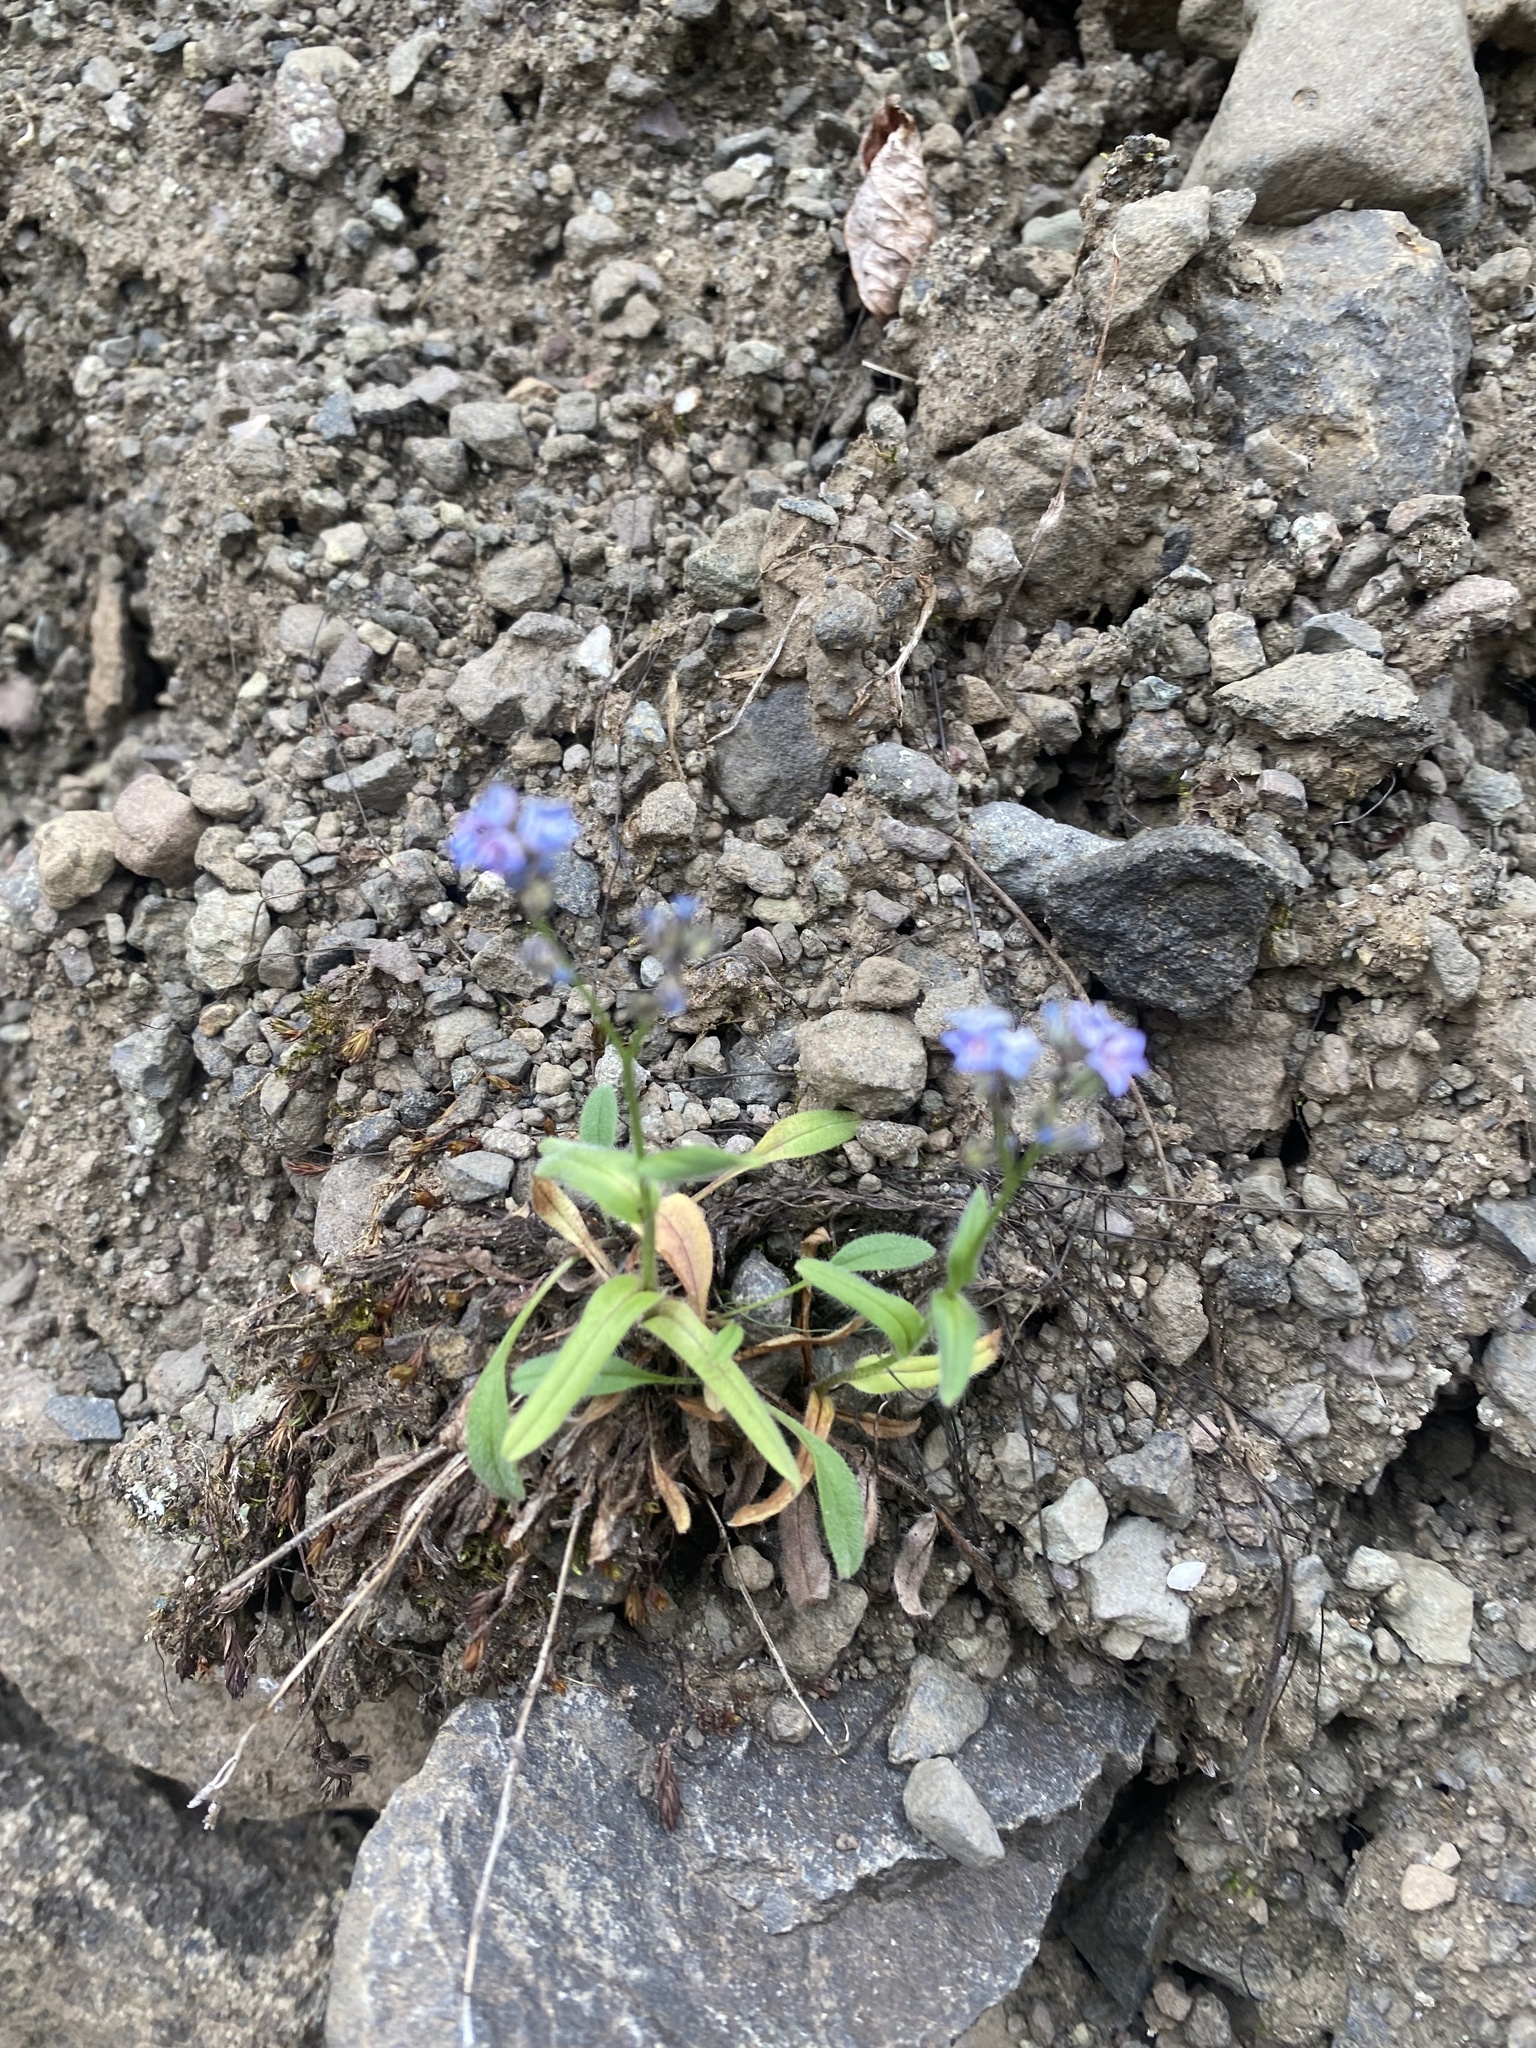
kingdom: Plantae
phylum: Tracheophyta
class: Magnoliopsida
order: Boraginales
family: Boraginaceae
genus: Myosotis
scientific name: Myosotis asiatica
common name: Asian forget-me-not
